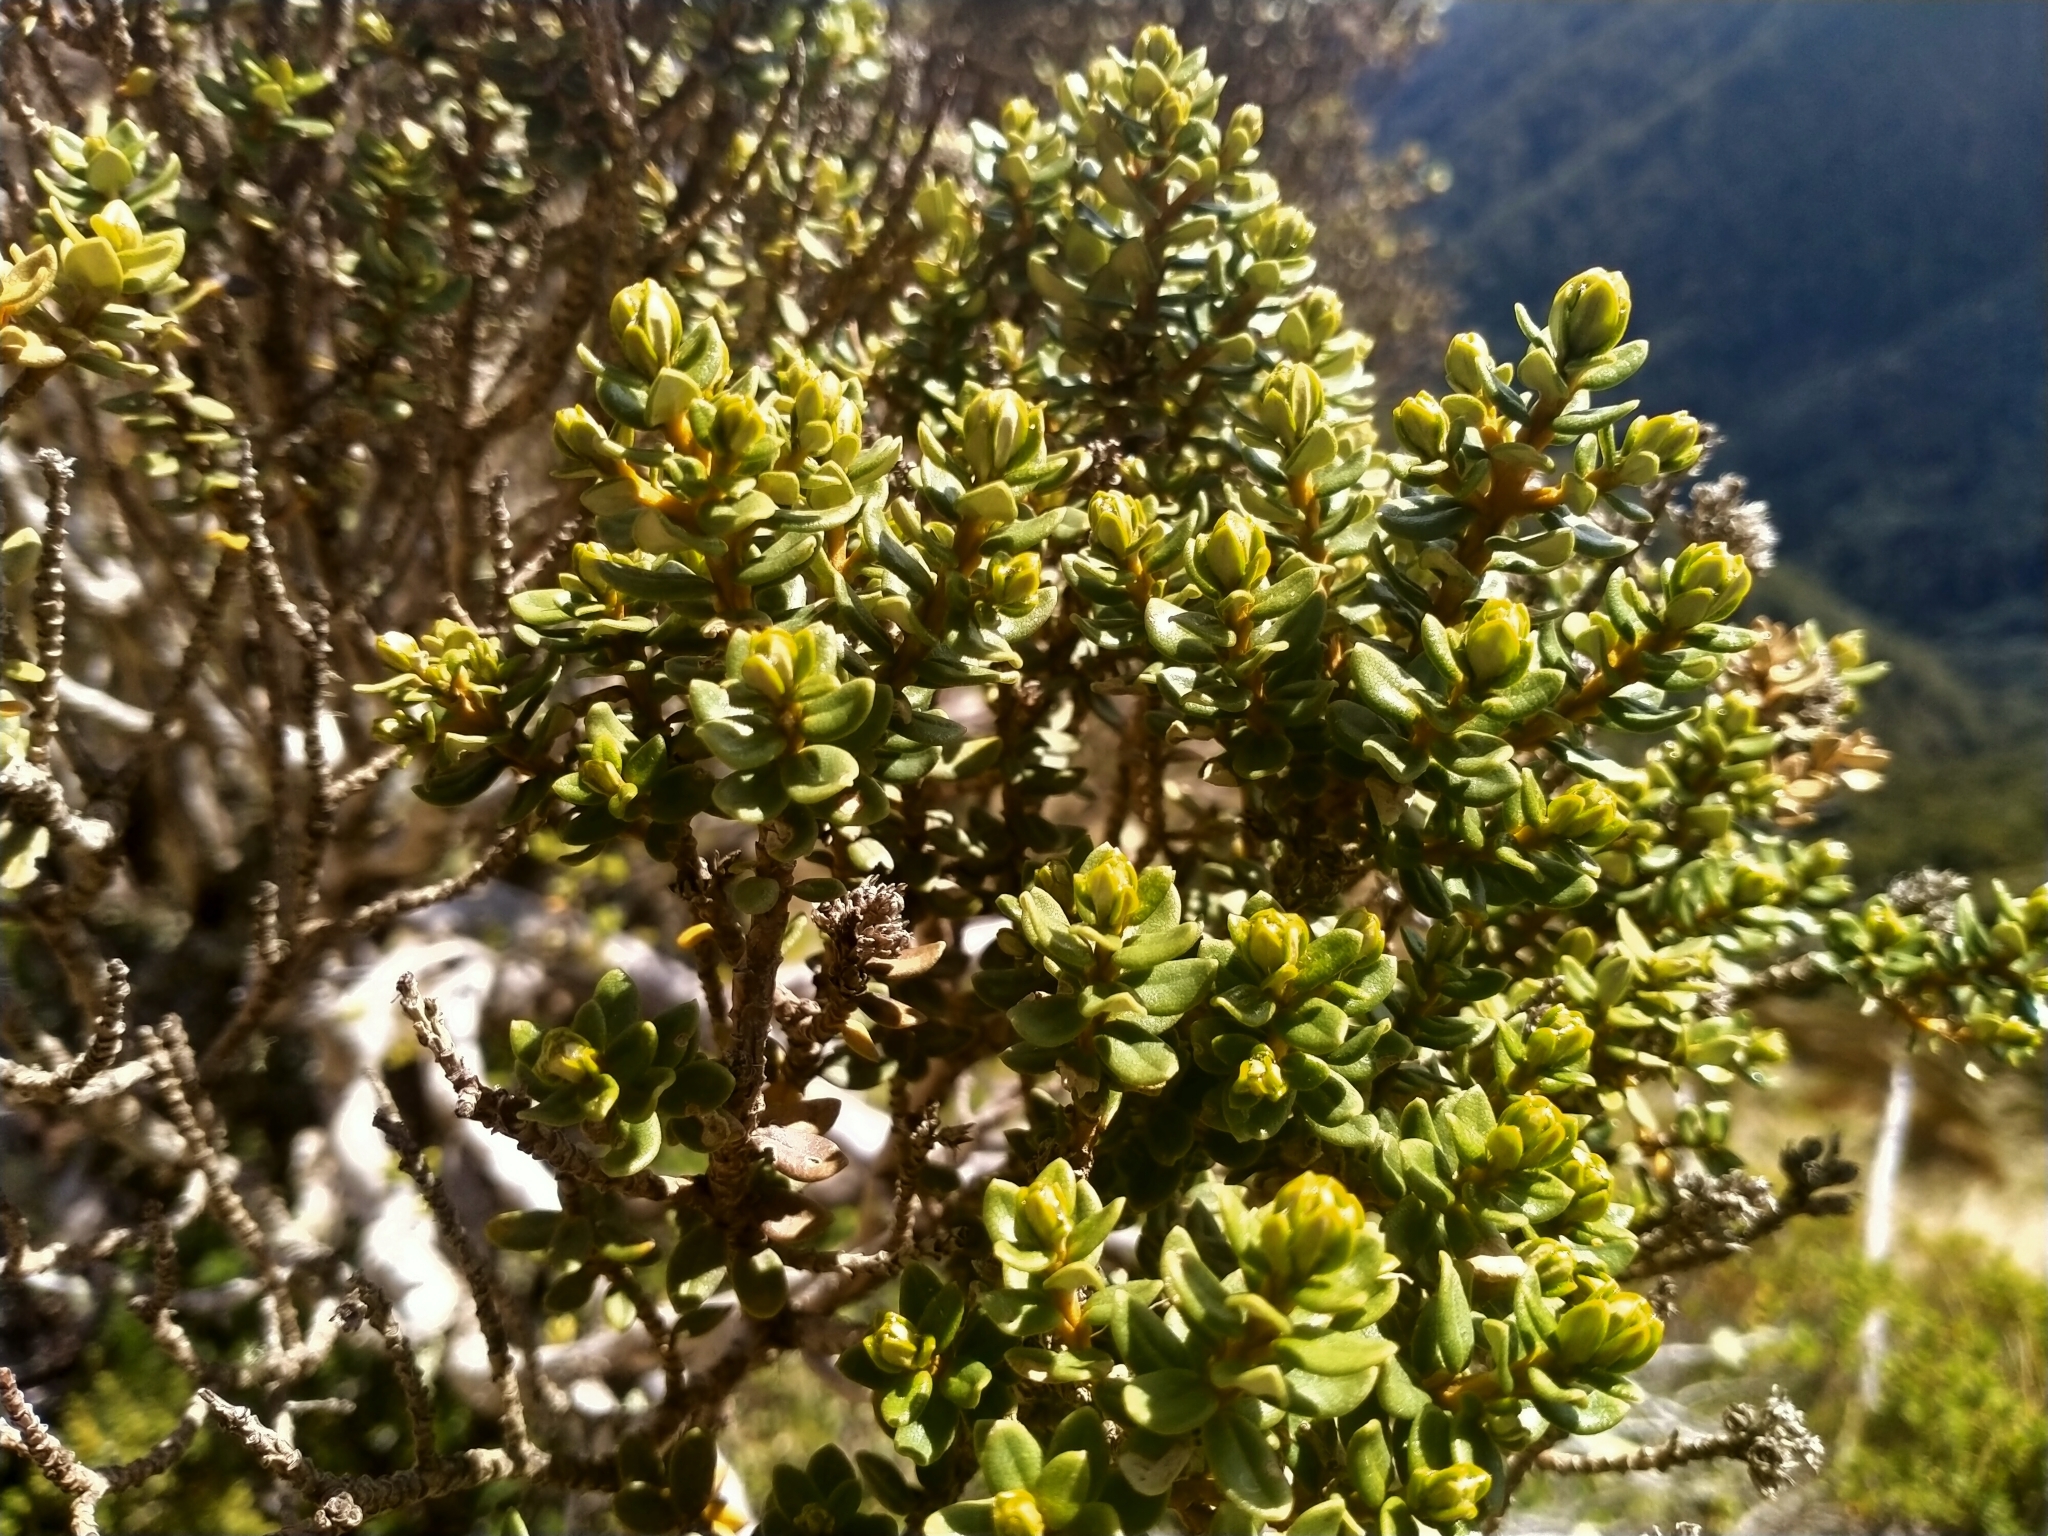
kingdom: Plantae
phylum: Tracheophyta
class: Magnoliopsida
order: Asterales
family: Asteraceae
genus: Olearia
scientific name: Olearia nummularifolia
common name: Sticky daisybush
